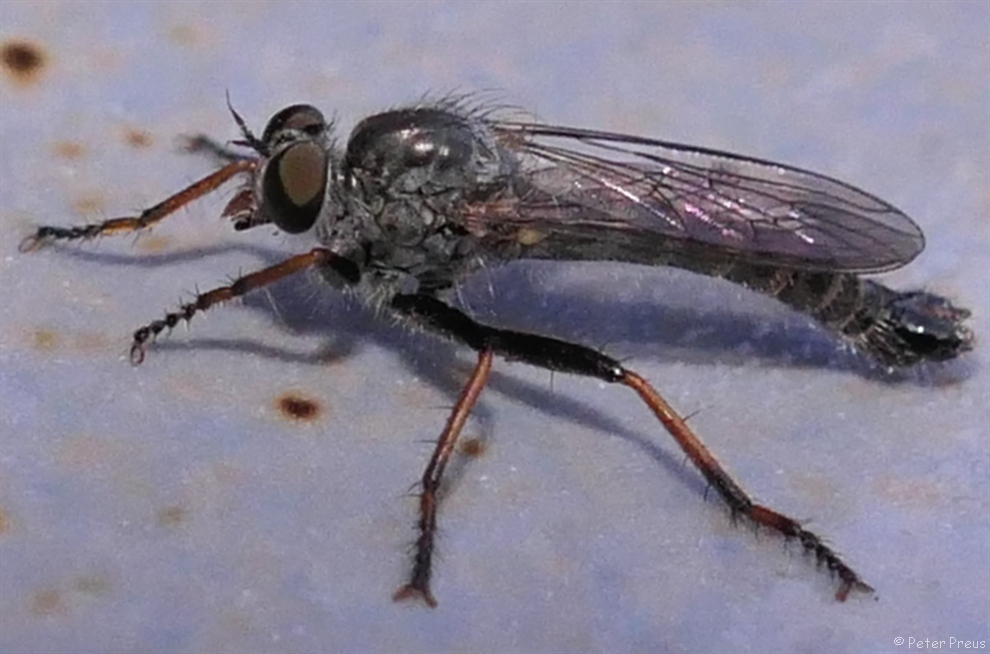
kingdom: Animalia
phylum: Arthropoda
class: Insecta
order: Diptera
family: Asilidae
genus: Paritamus
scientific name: Paritamus geniculatus
